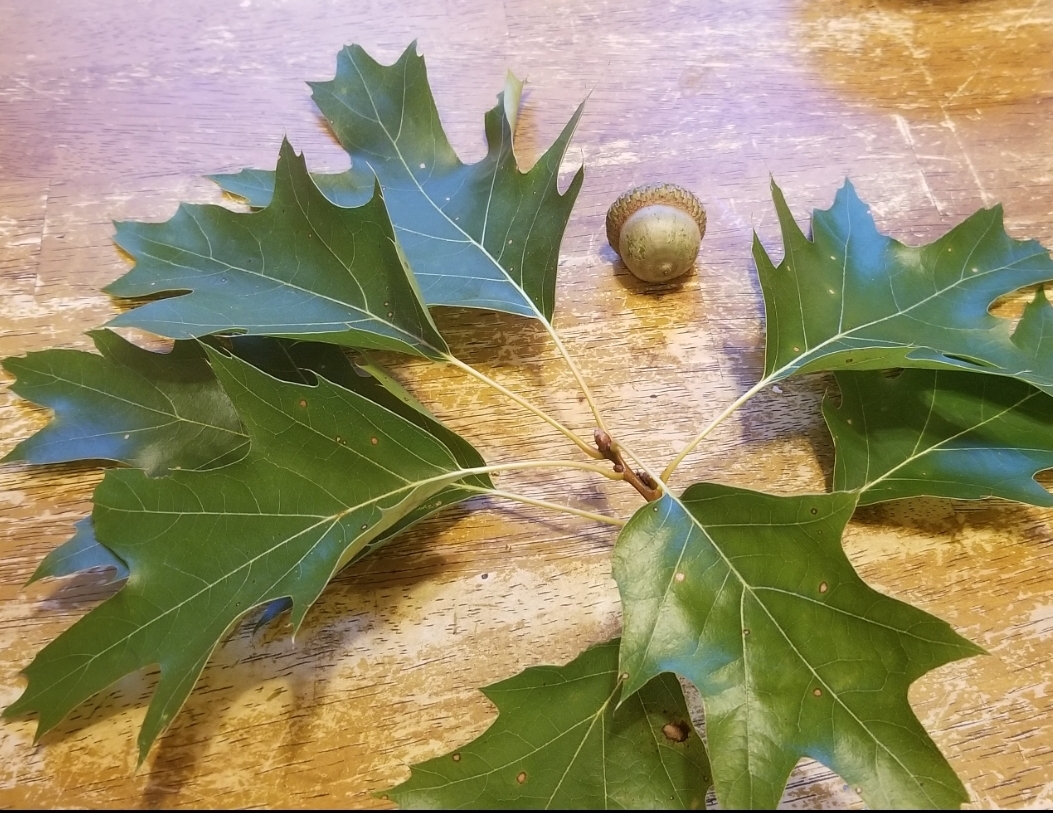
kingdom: Plantae
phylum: Tracheophyta
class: Magnoliopsida
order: Fagales
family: Fagaceae
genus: Quercus
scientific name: Quercus rubra
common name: Red oak
